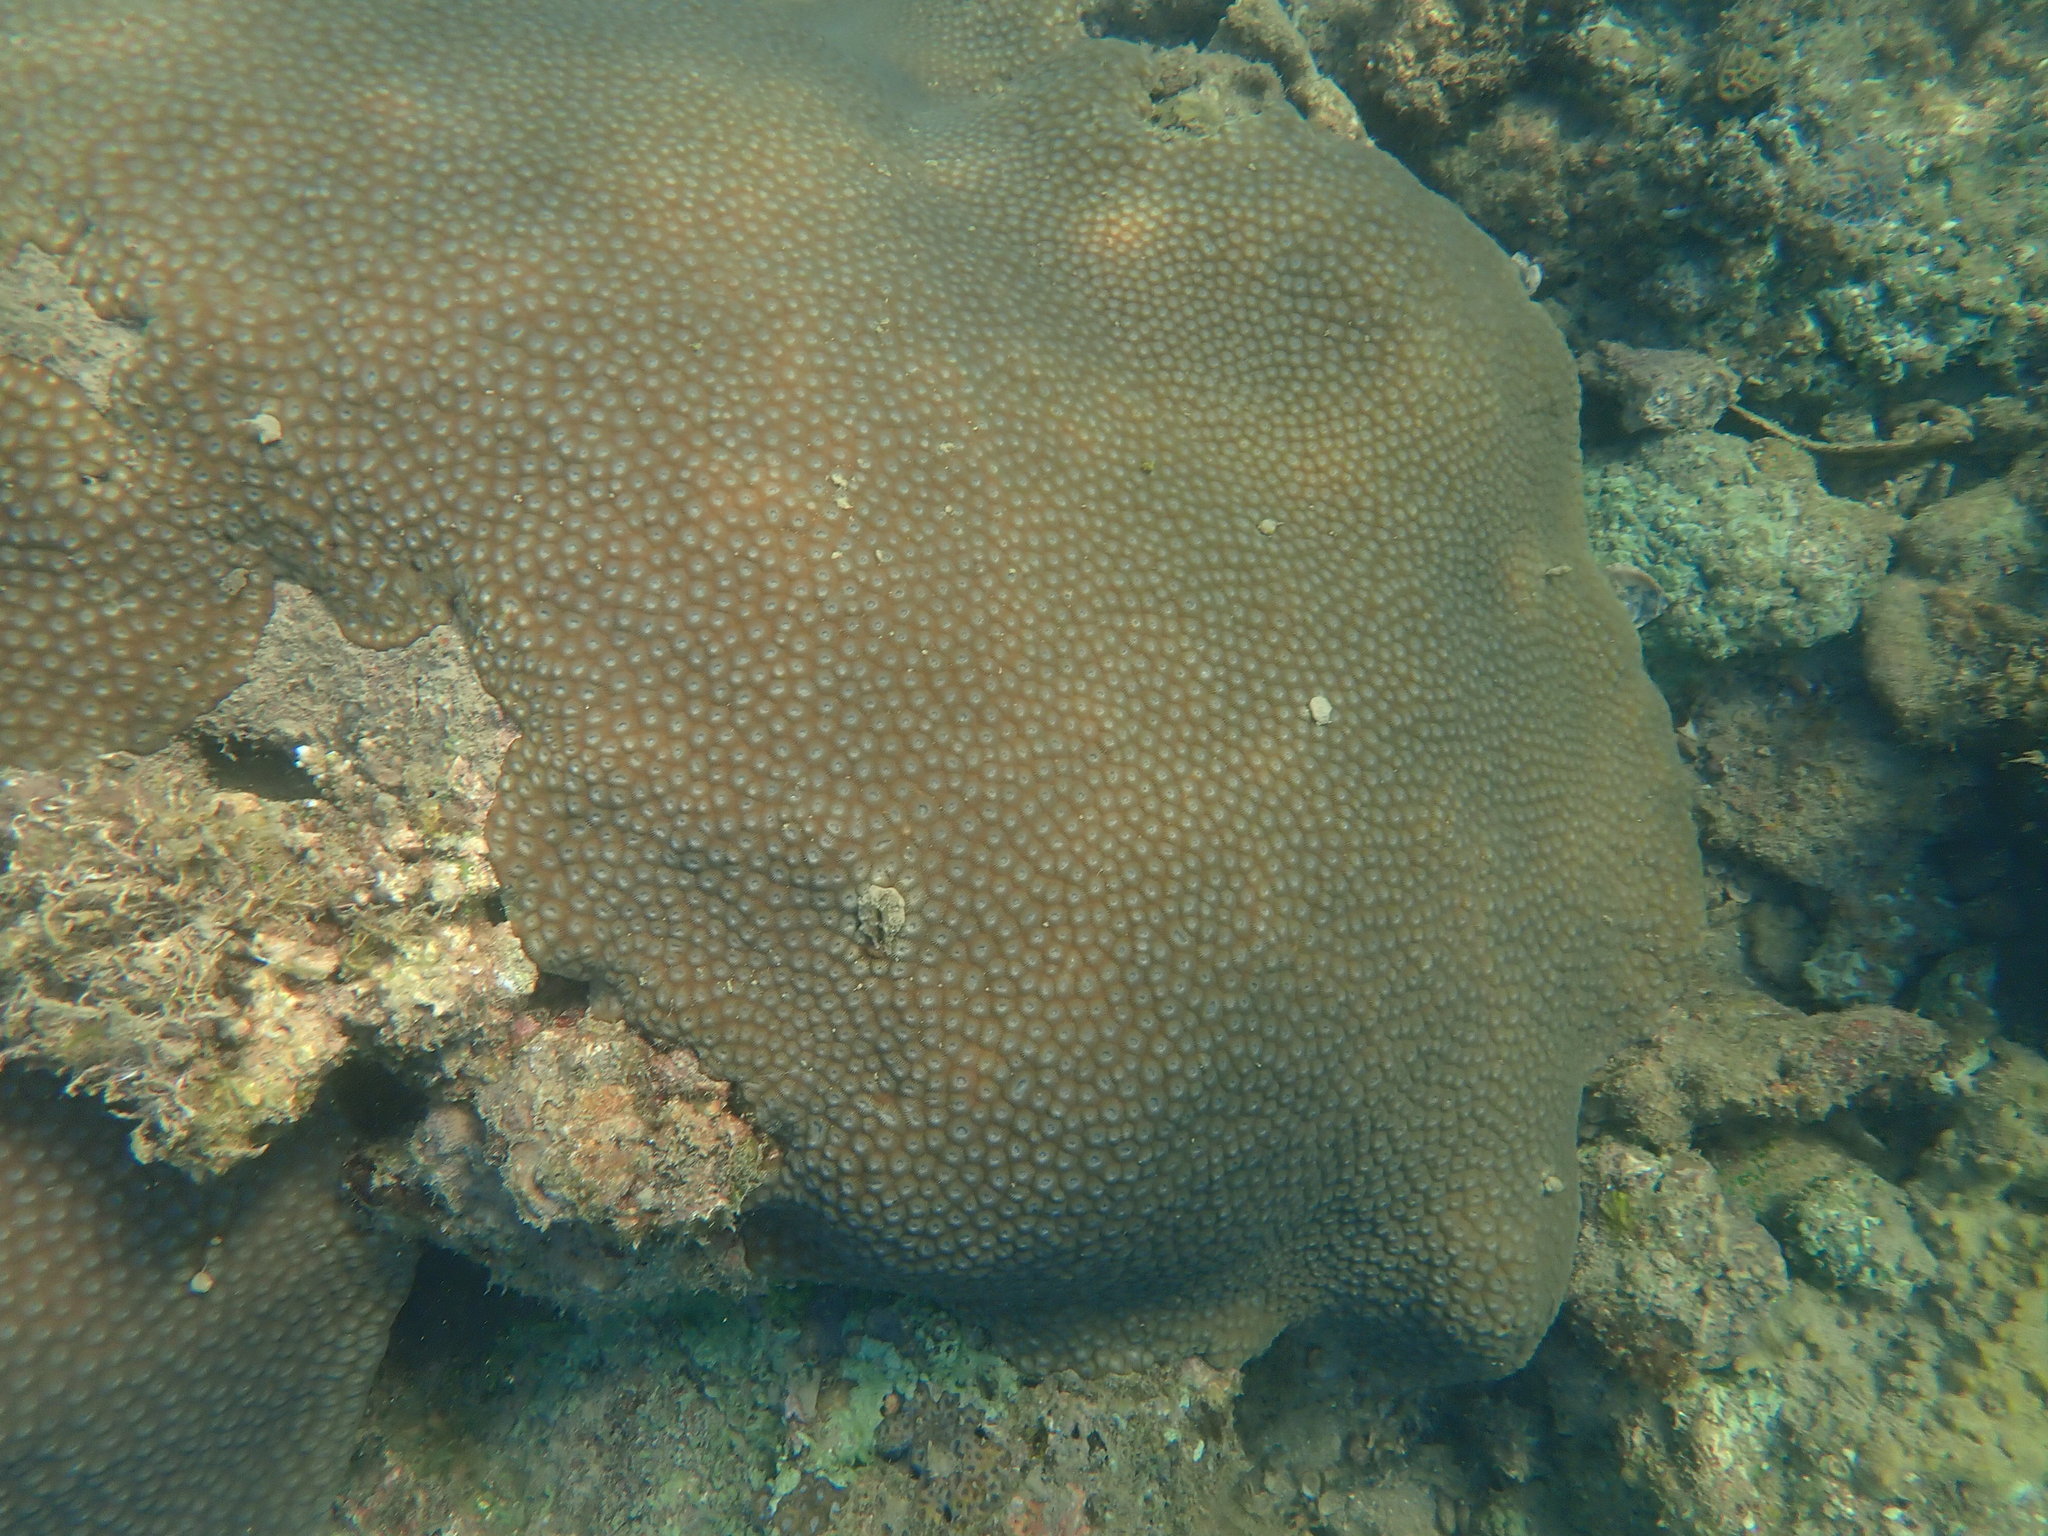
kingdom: Animalia
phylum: Cnidaria
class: Anthozoa
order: Scleractinia
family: Diploastraeidae
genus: Diploastrea
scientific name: Diploastrea heliopora
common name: Double-star coral
